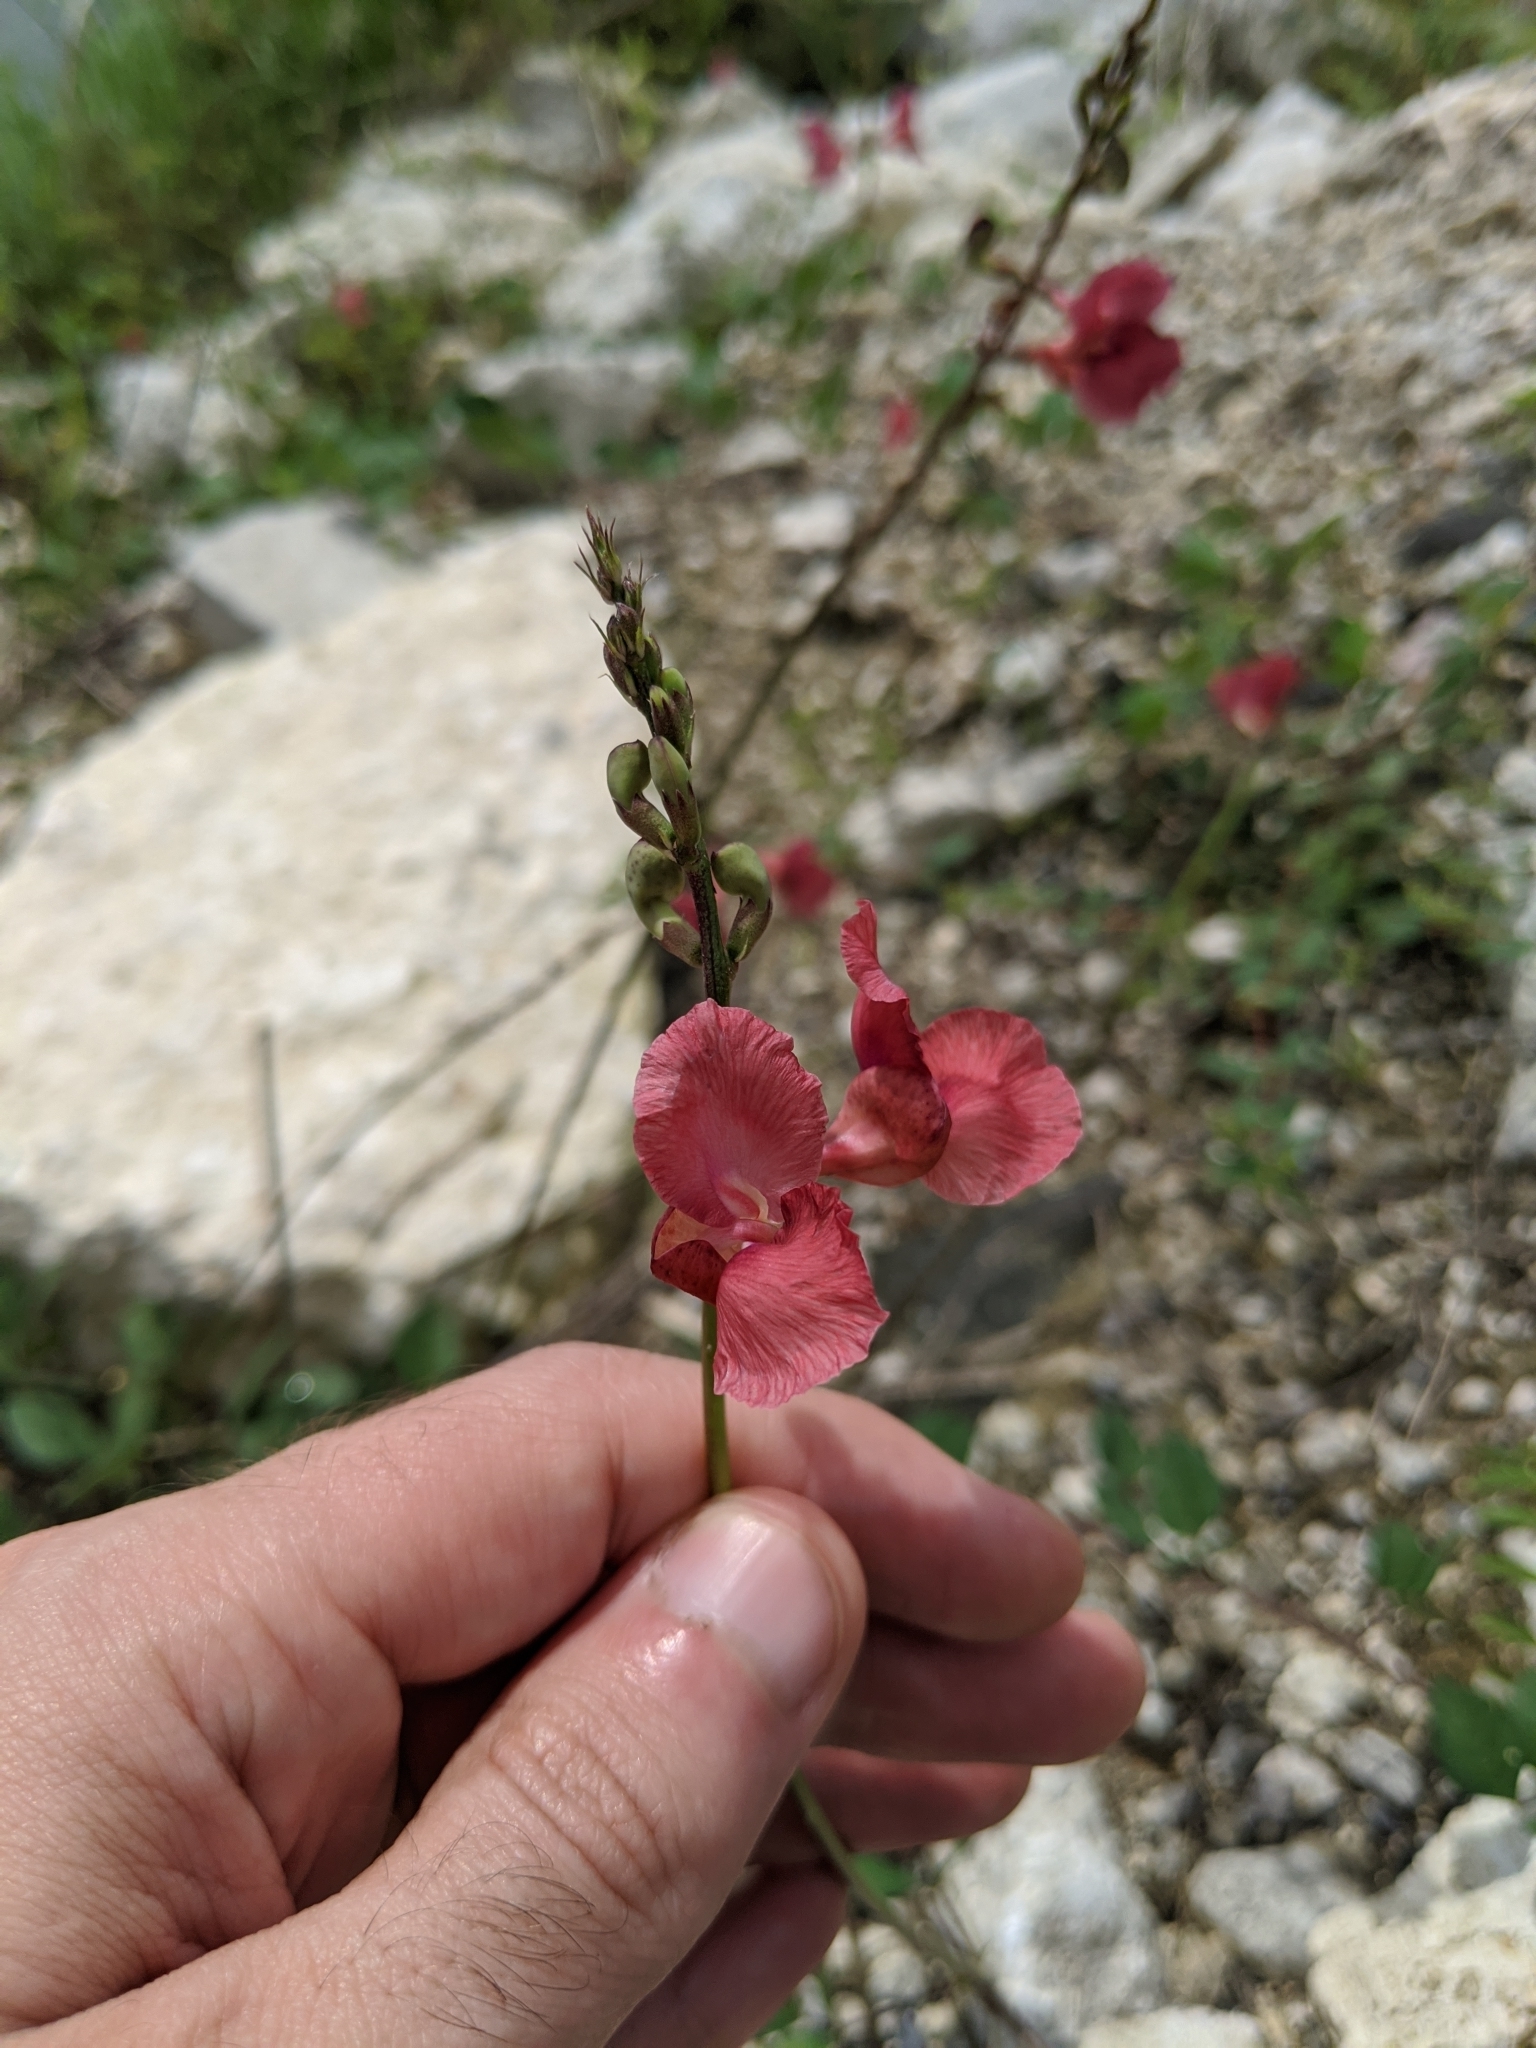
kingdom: Plantae
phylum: Tracheophyta
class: Magnoliopsida
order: Fabales
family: Fabaceae
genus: Macroptilium
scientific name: Macroptilium lathyroides
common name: Wild bushbean
